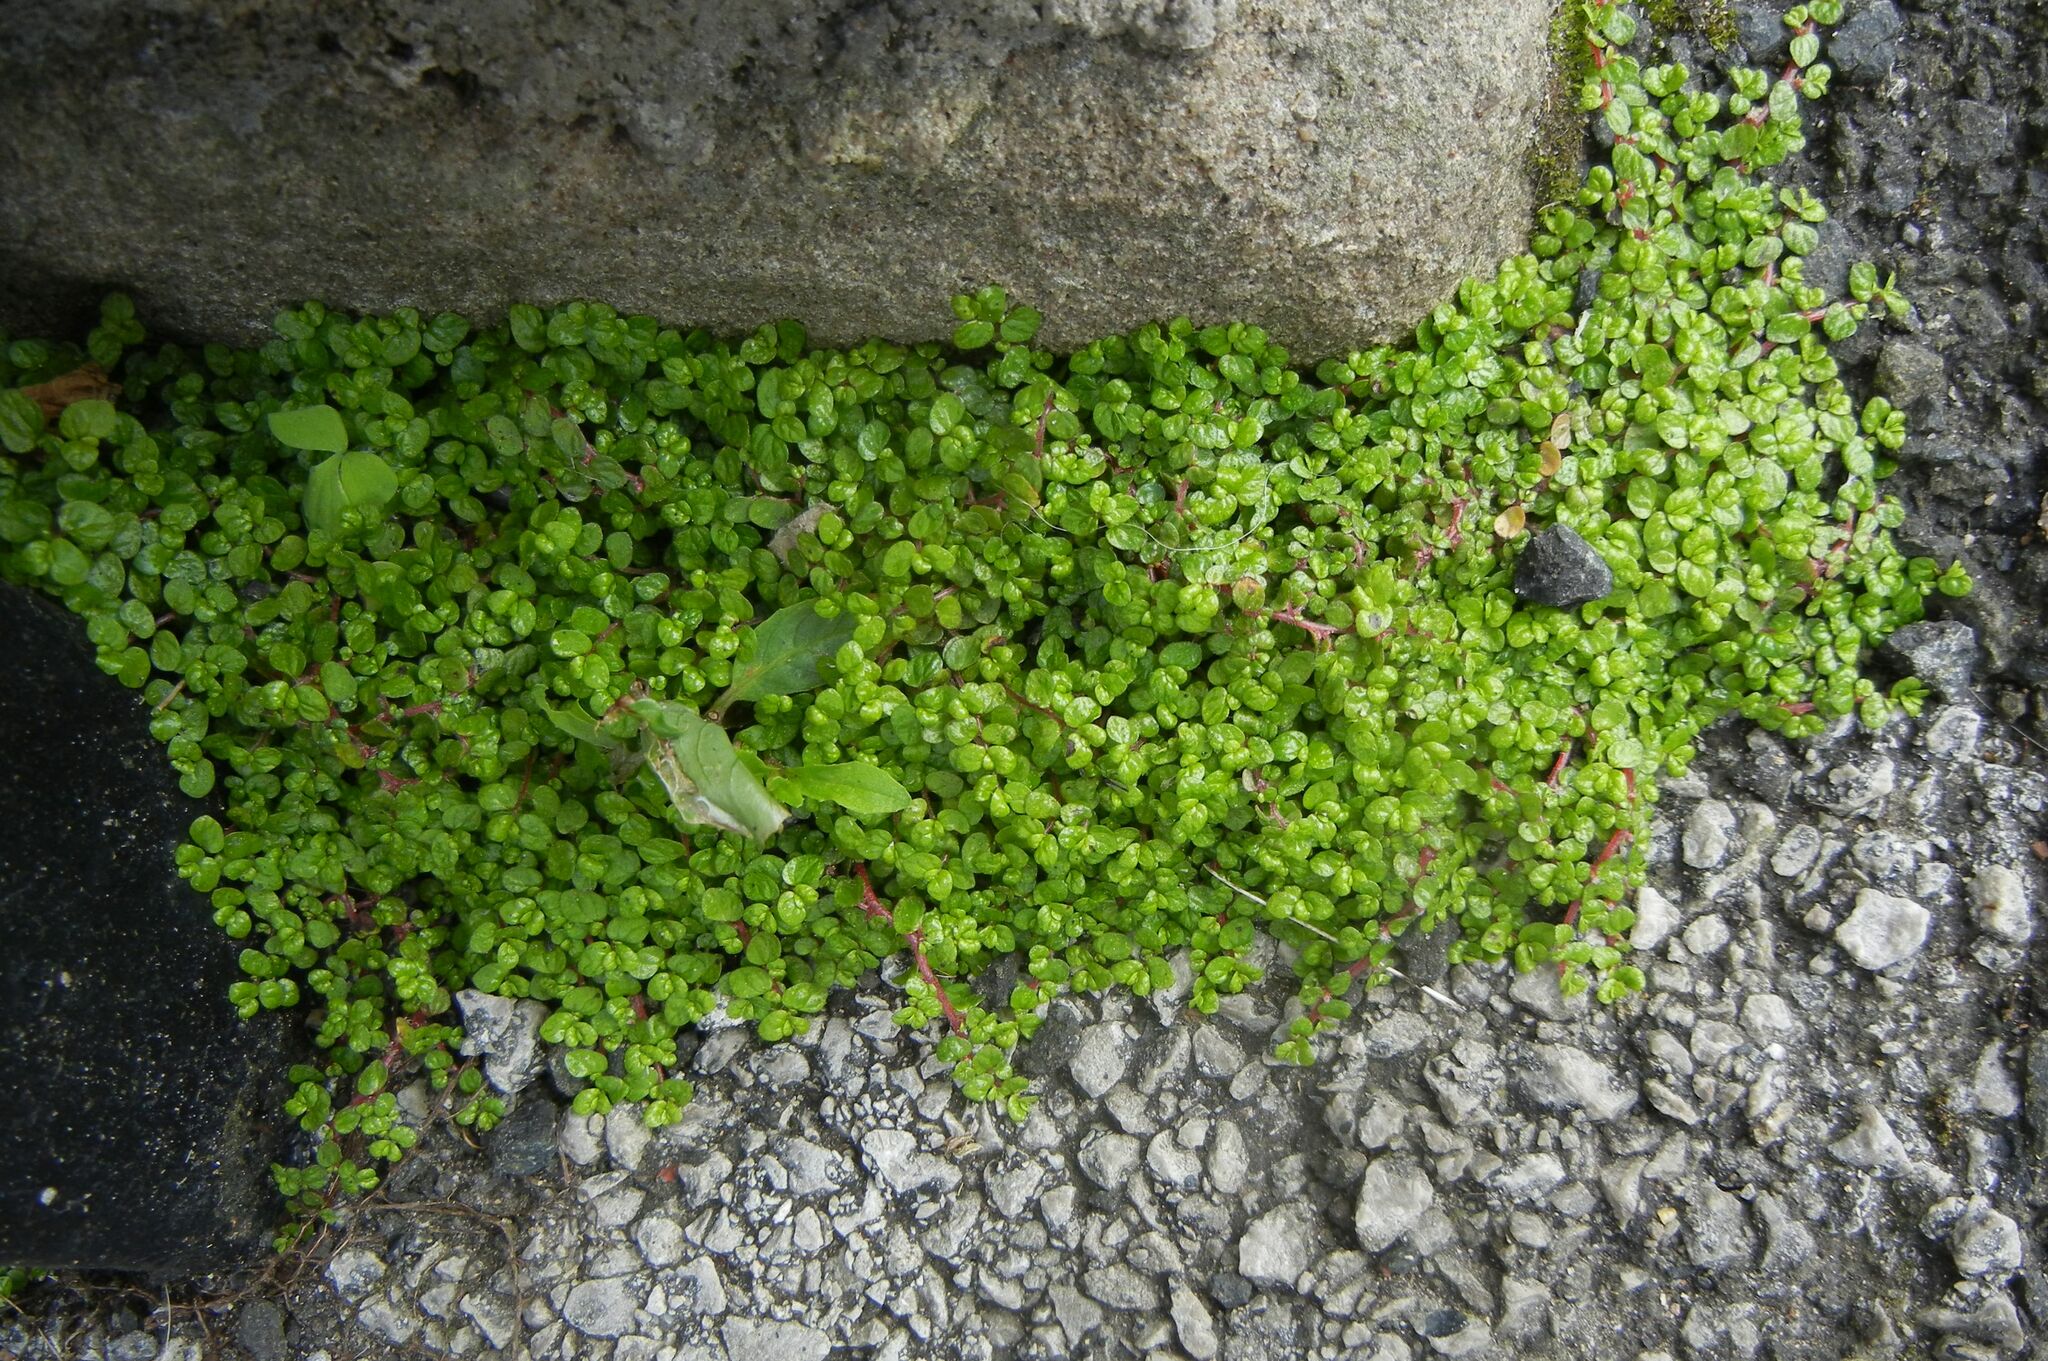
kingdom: Plantae
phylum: Tracheophyta
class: Magnoliopsida
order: Rosales
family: Urticaceae
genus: Soleirolia
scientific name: Soleirolia soleirolii
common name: Mind-your-own-business
